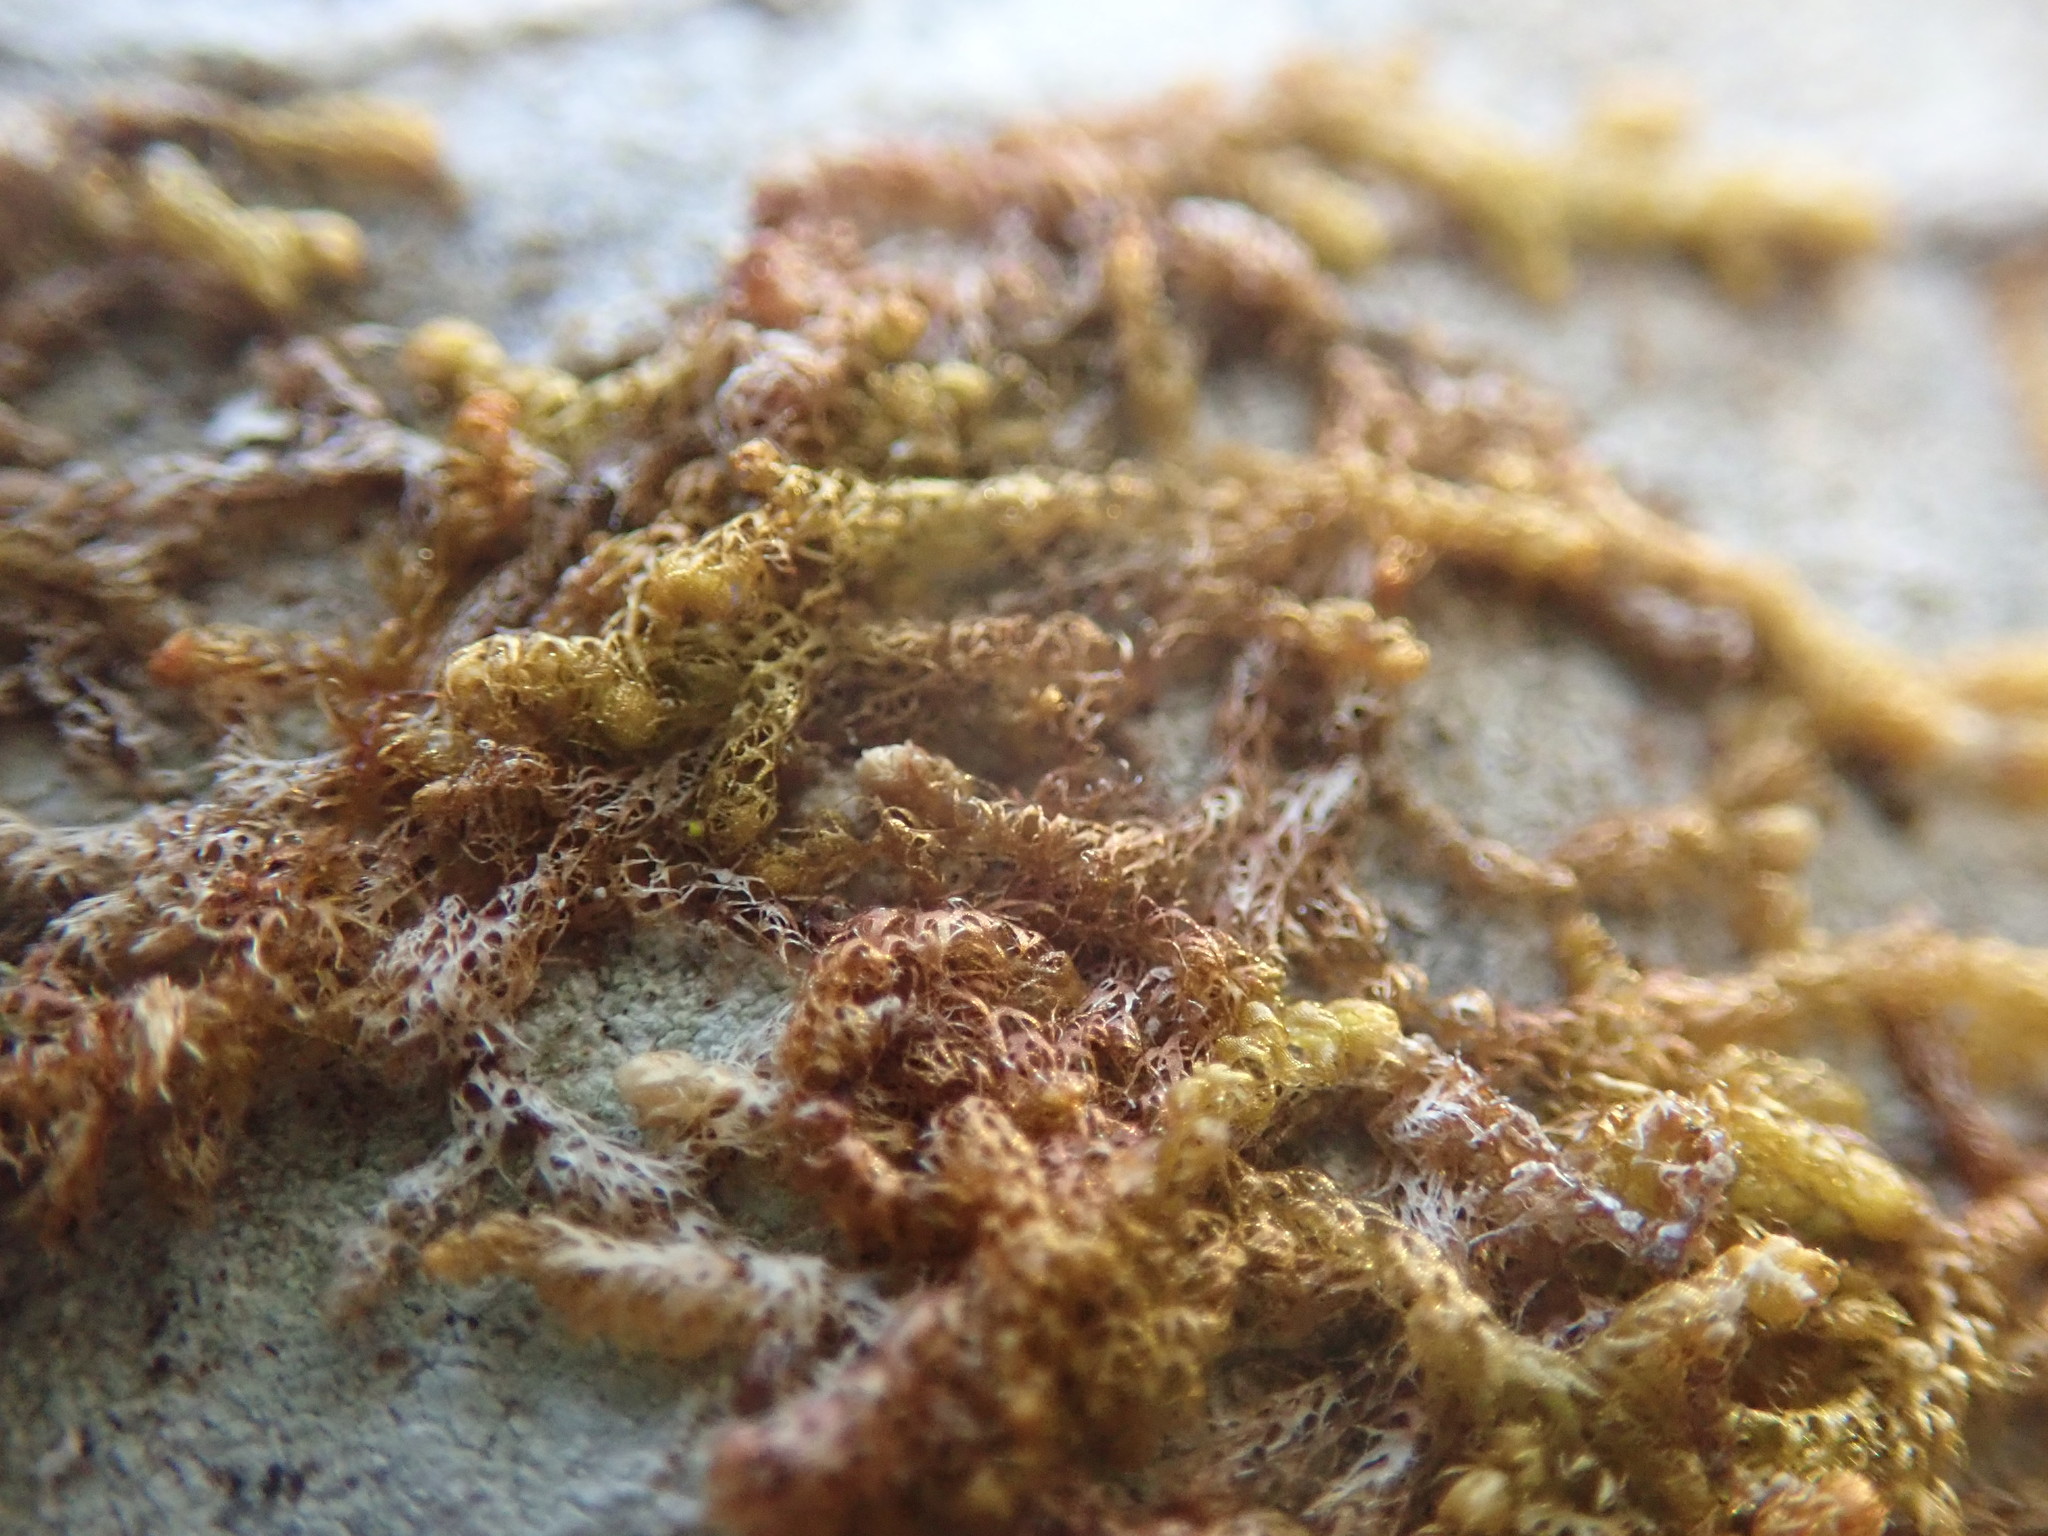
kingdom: Plantae
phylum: Marchantiophyta
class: Jungermanniopsida
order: Ptilidiales
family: Ptilidiaceae
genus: Ptilidium
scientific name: Ptilidium californicum
